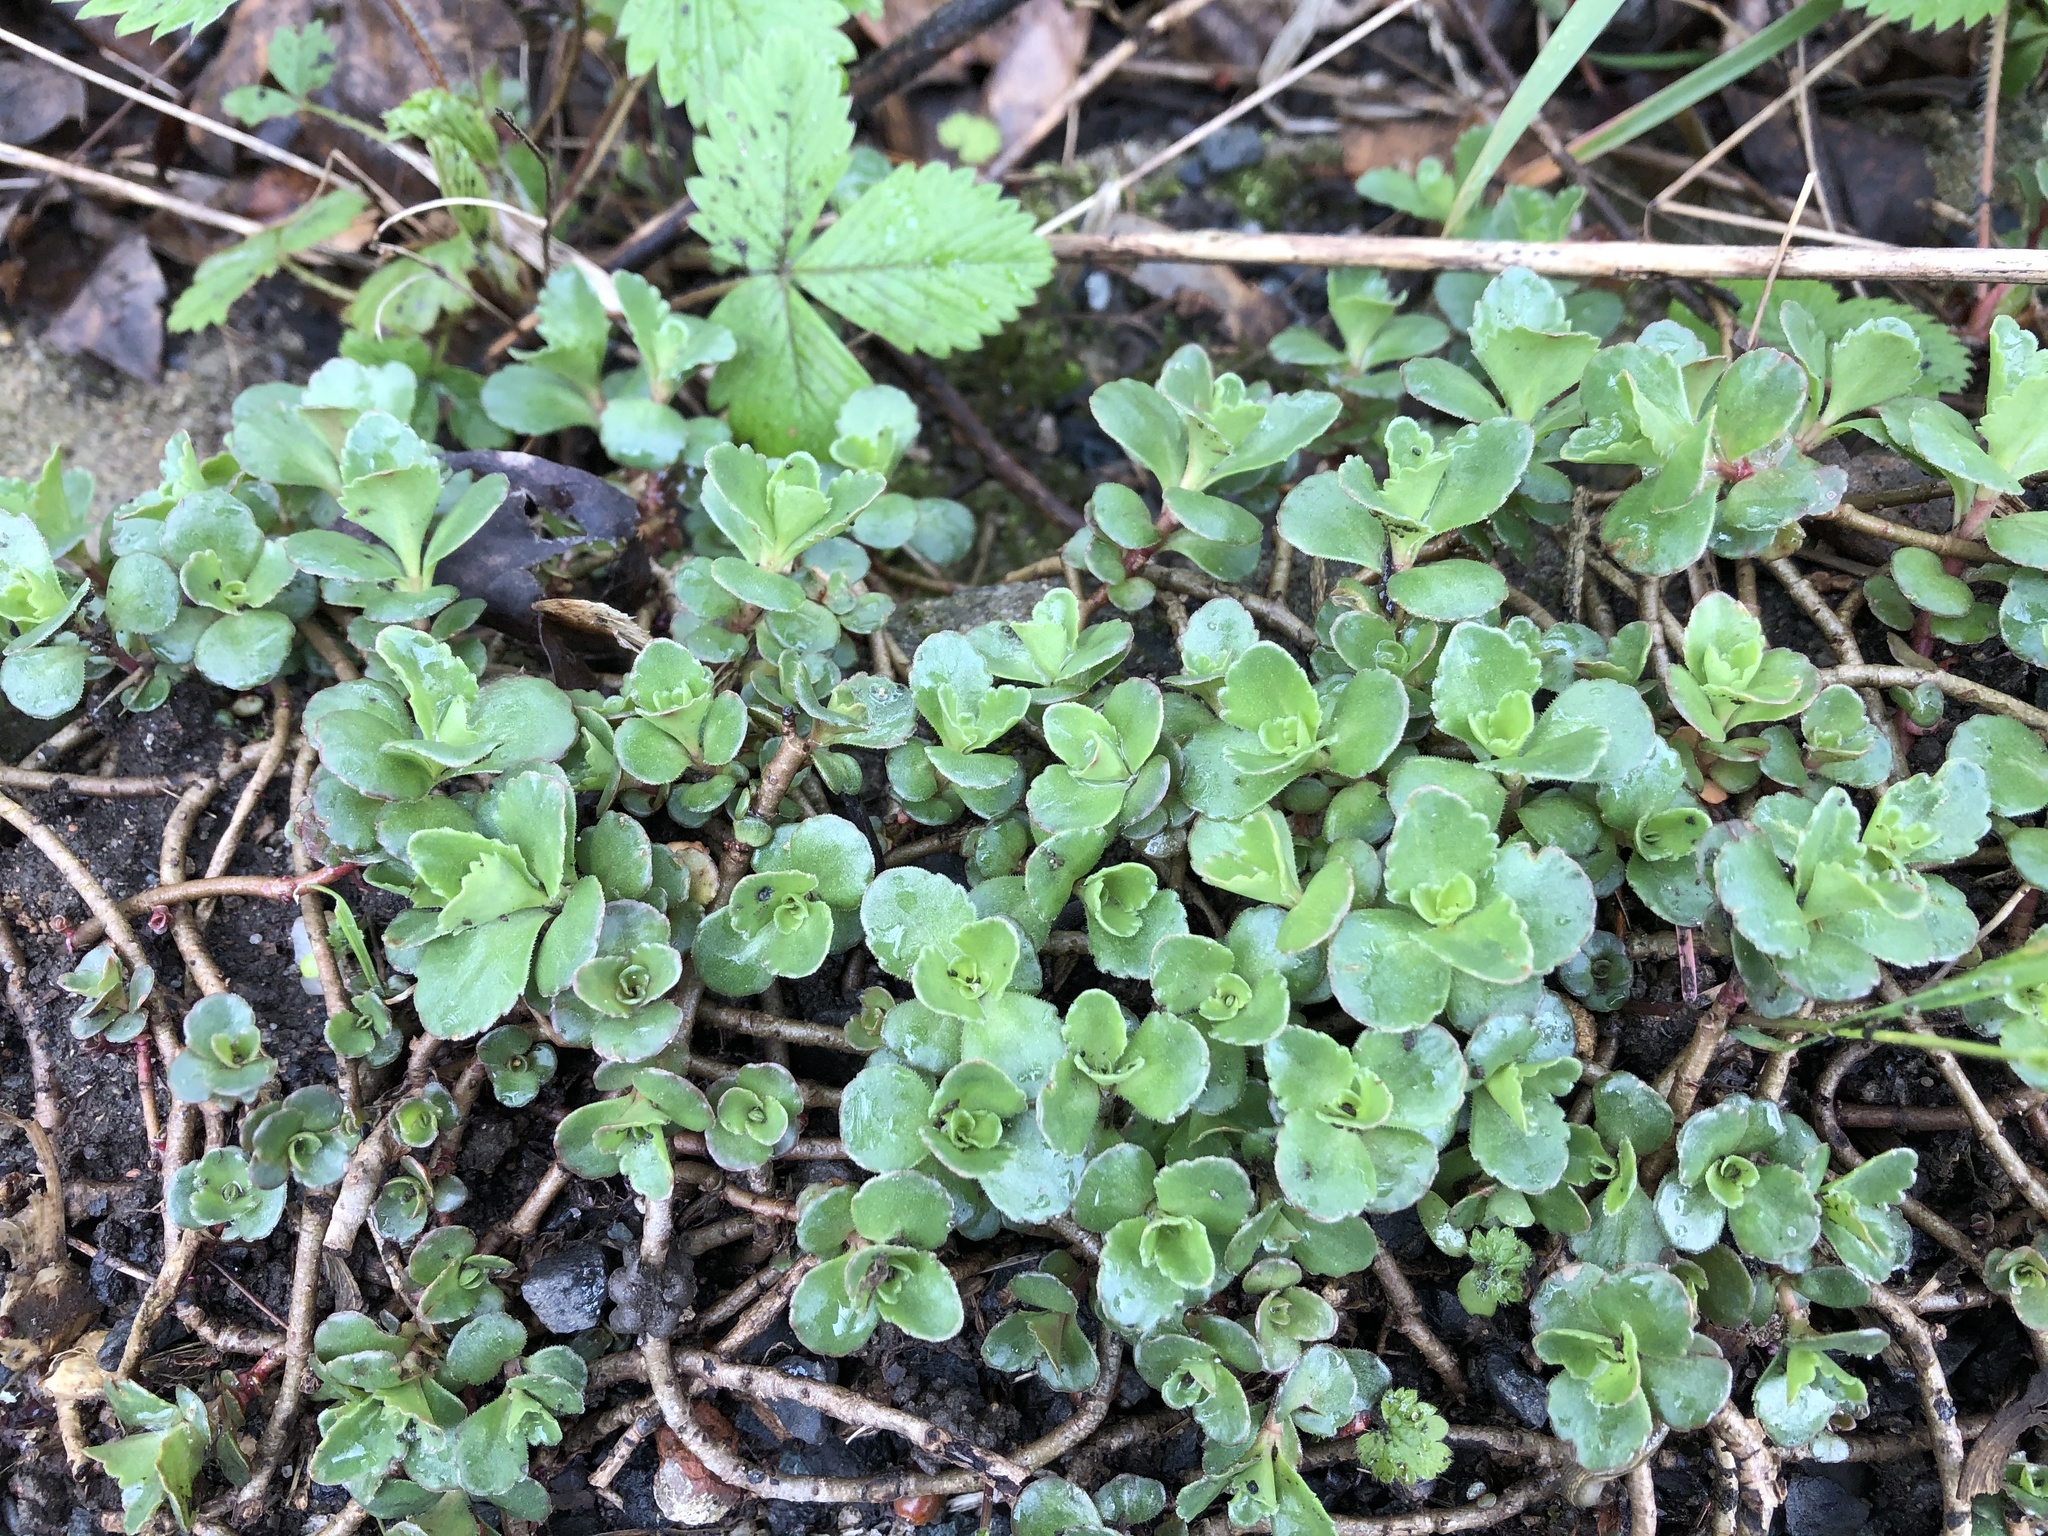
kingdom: Plantae
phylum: Tracheophyta
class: Magnoliopsida
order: Saxifragales
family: Crassulaceae
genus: Phedimus
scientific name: Phedimus spurius
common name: Caucasian stonecrop
